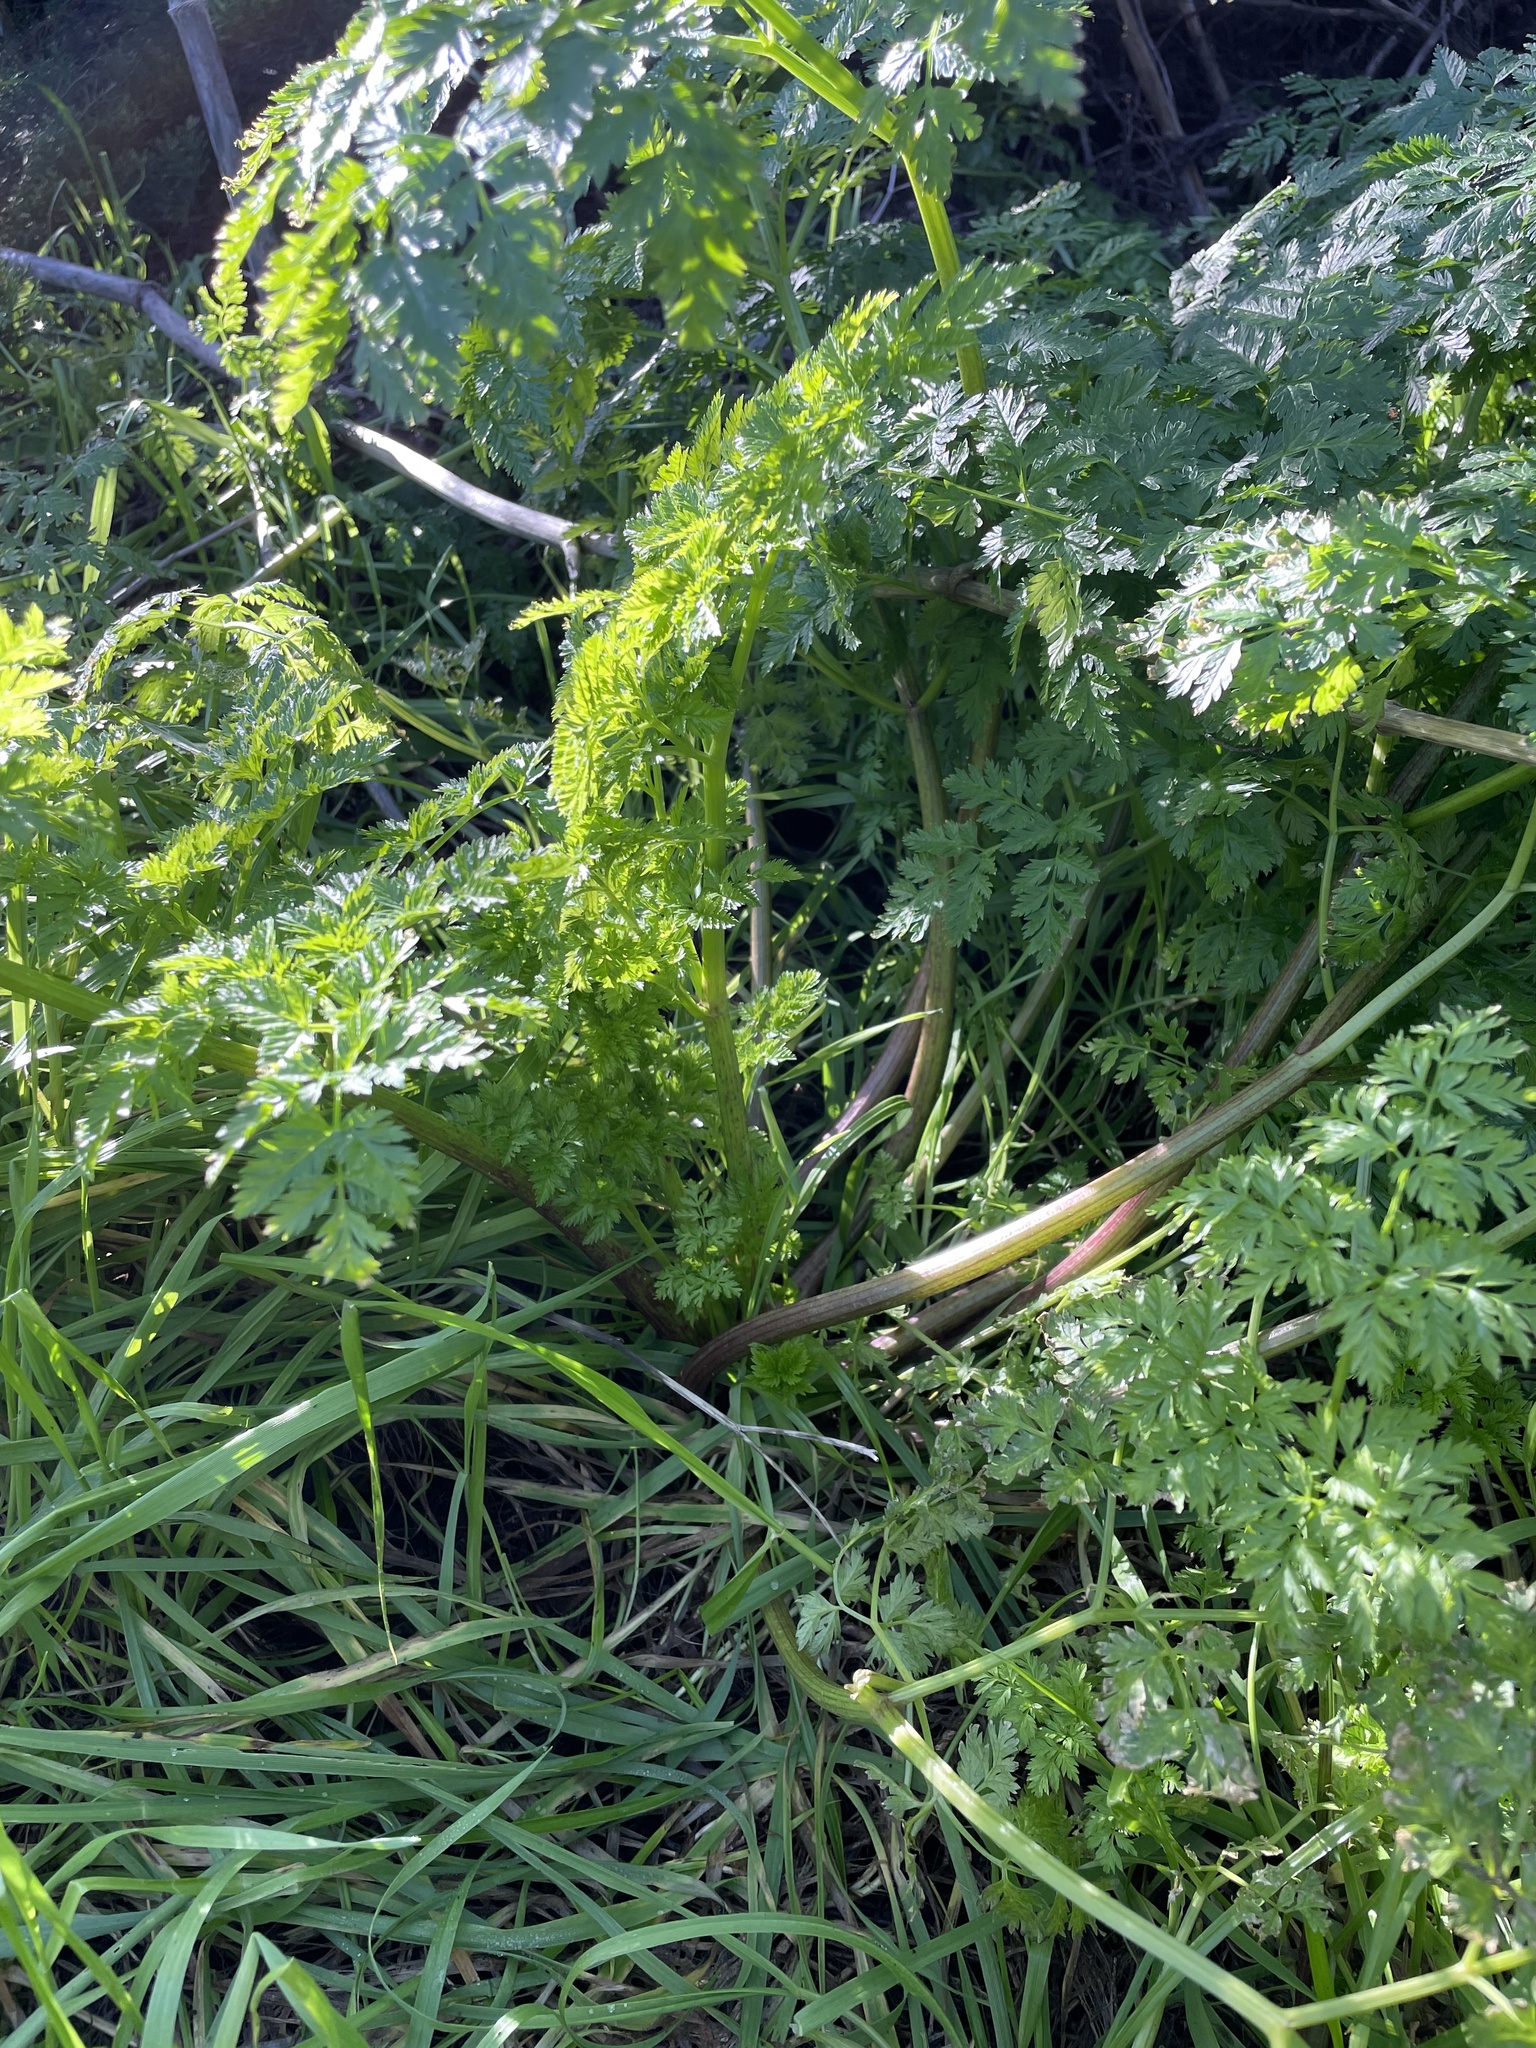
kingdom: Plantae
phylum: Tracheophyta
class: Magnoliopsida
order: Apiales
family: Apiaceae
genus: Conium
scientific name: Conium maculatum
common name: Hemlock
